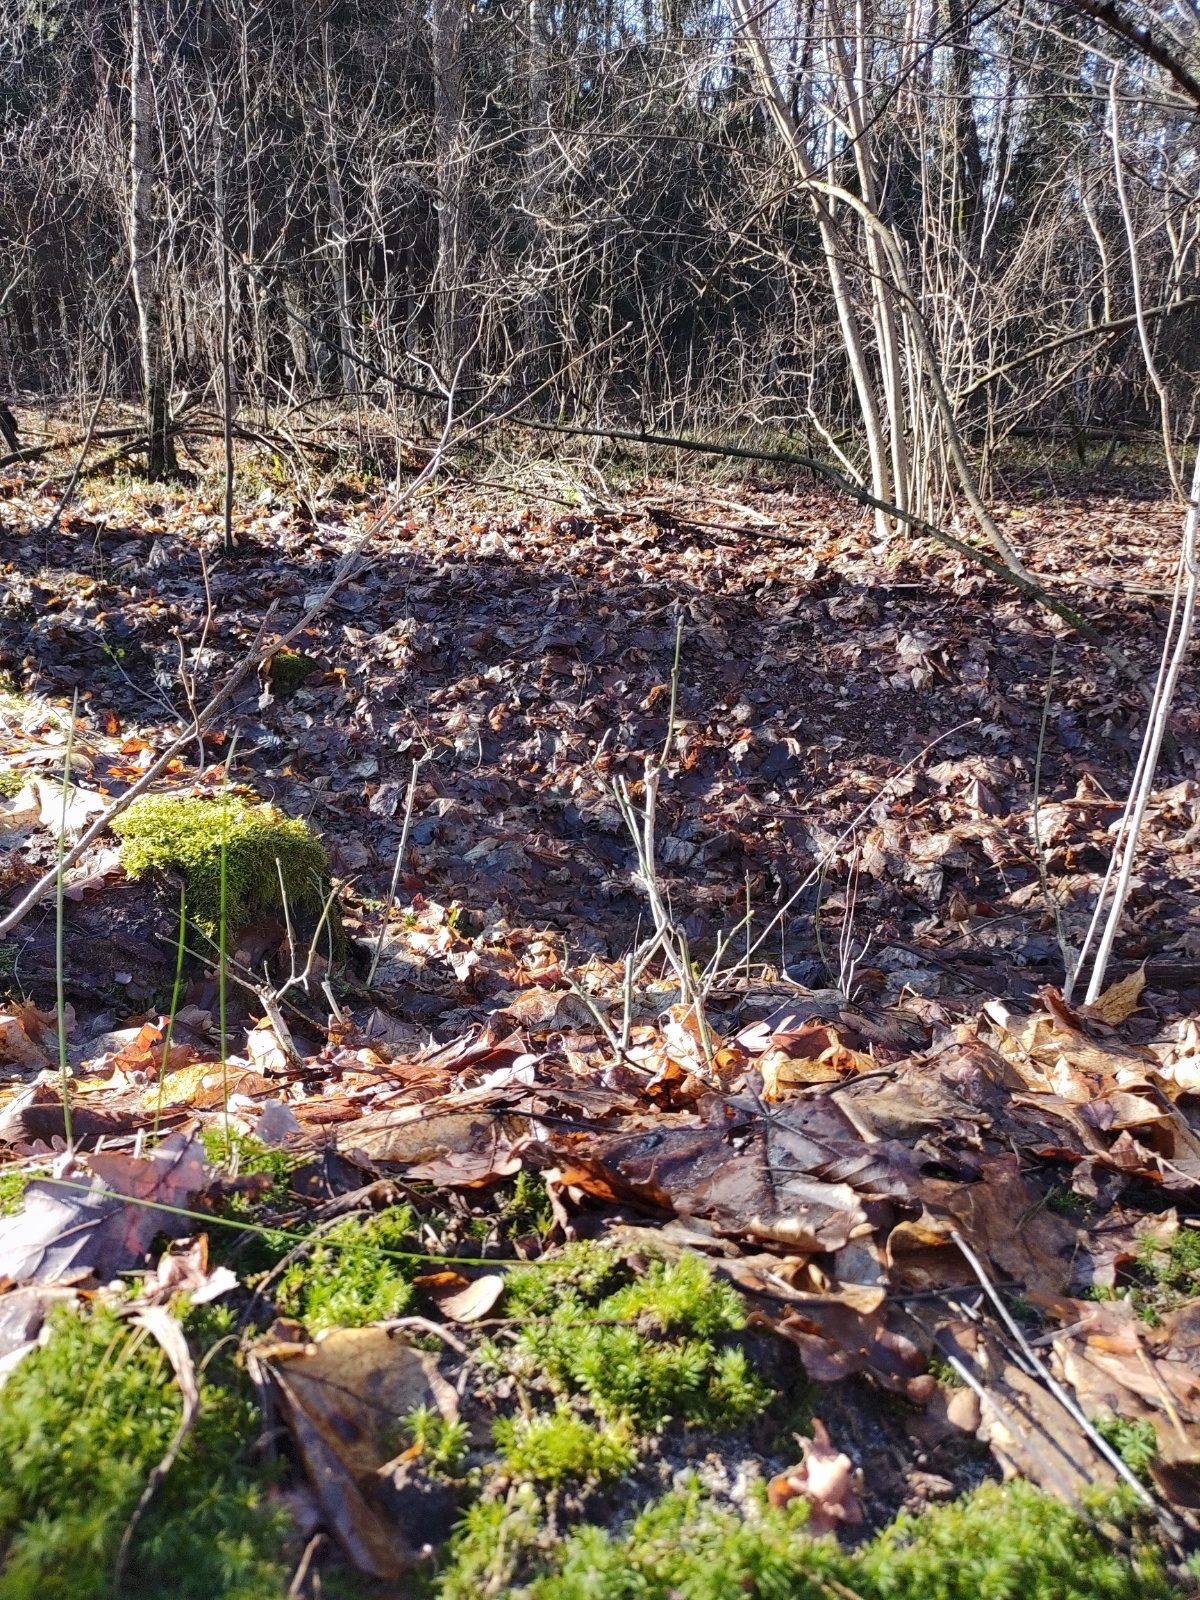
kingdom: Plantae
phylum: Bryophyta
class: Polytrichopsida
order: Polytrichales
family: Polytrichaceae
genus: Atrichum
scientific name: Atrichum undulatum
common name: Common smoothcap
